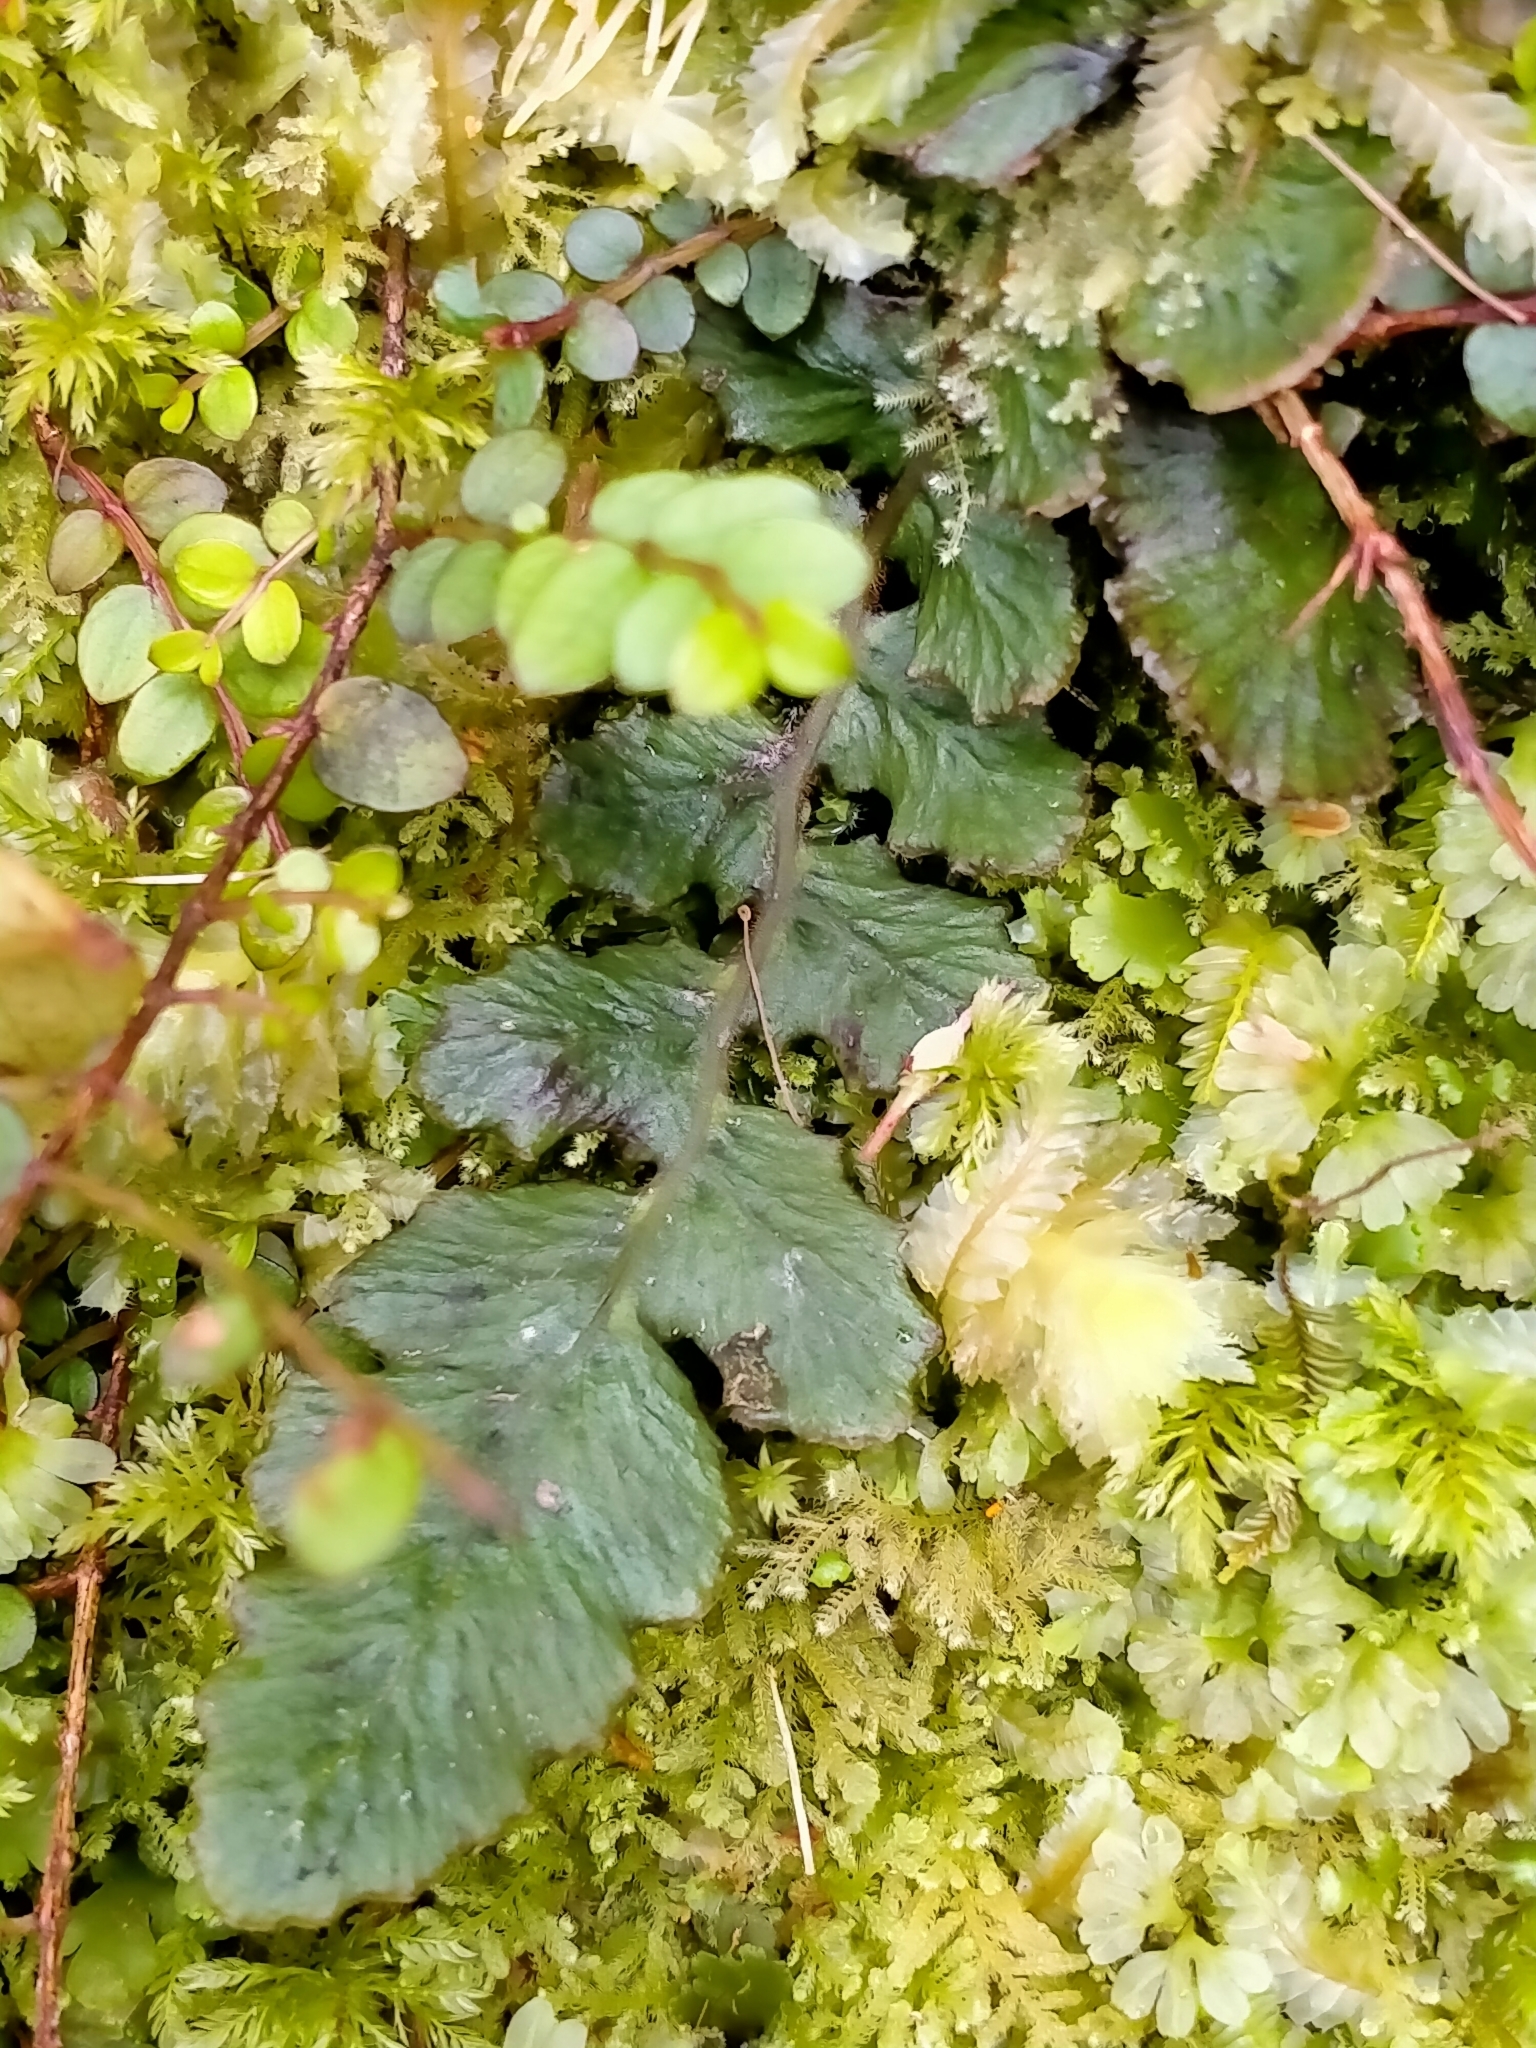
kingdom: Plantae
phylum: Tracheophyta
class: Polypodiopsida
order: Polypodiales
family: Blechnaceae
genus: Cranfillia
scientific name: Cranfillia nigra
